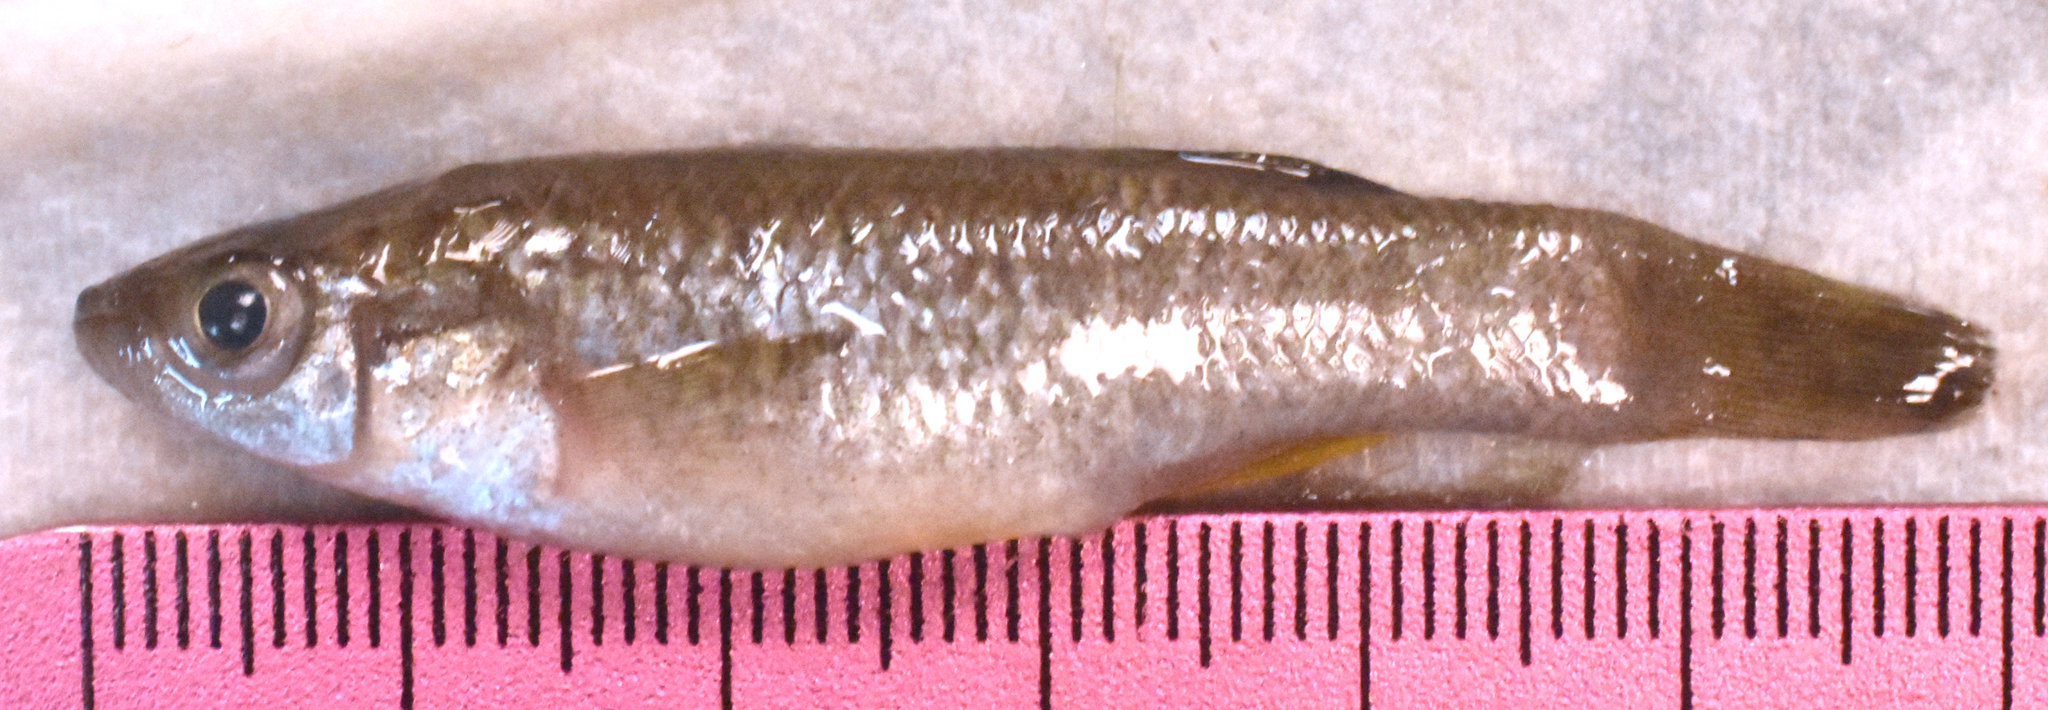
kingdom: Animalia
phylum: Chordata
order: Cyprinodontiformes
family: Fundulidae
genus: Fundulus
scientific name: Fundulus grandis
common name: Gulf killifish
